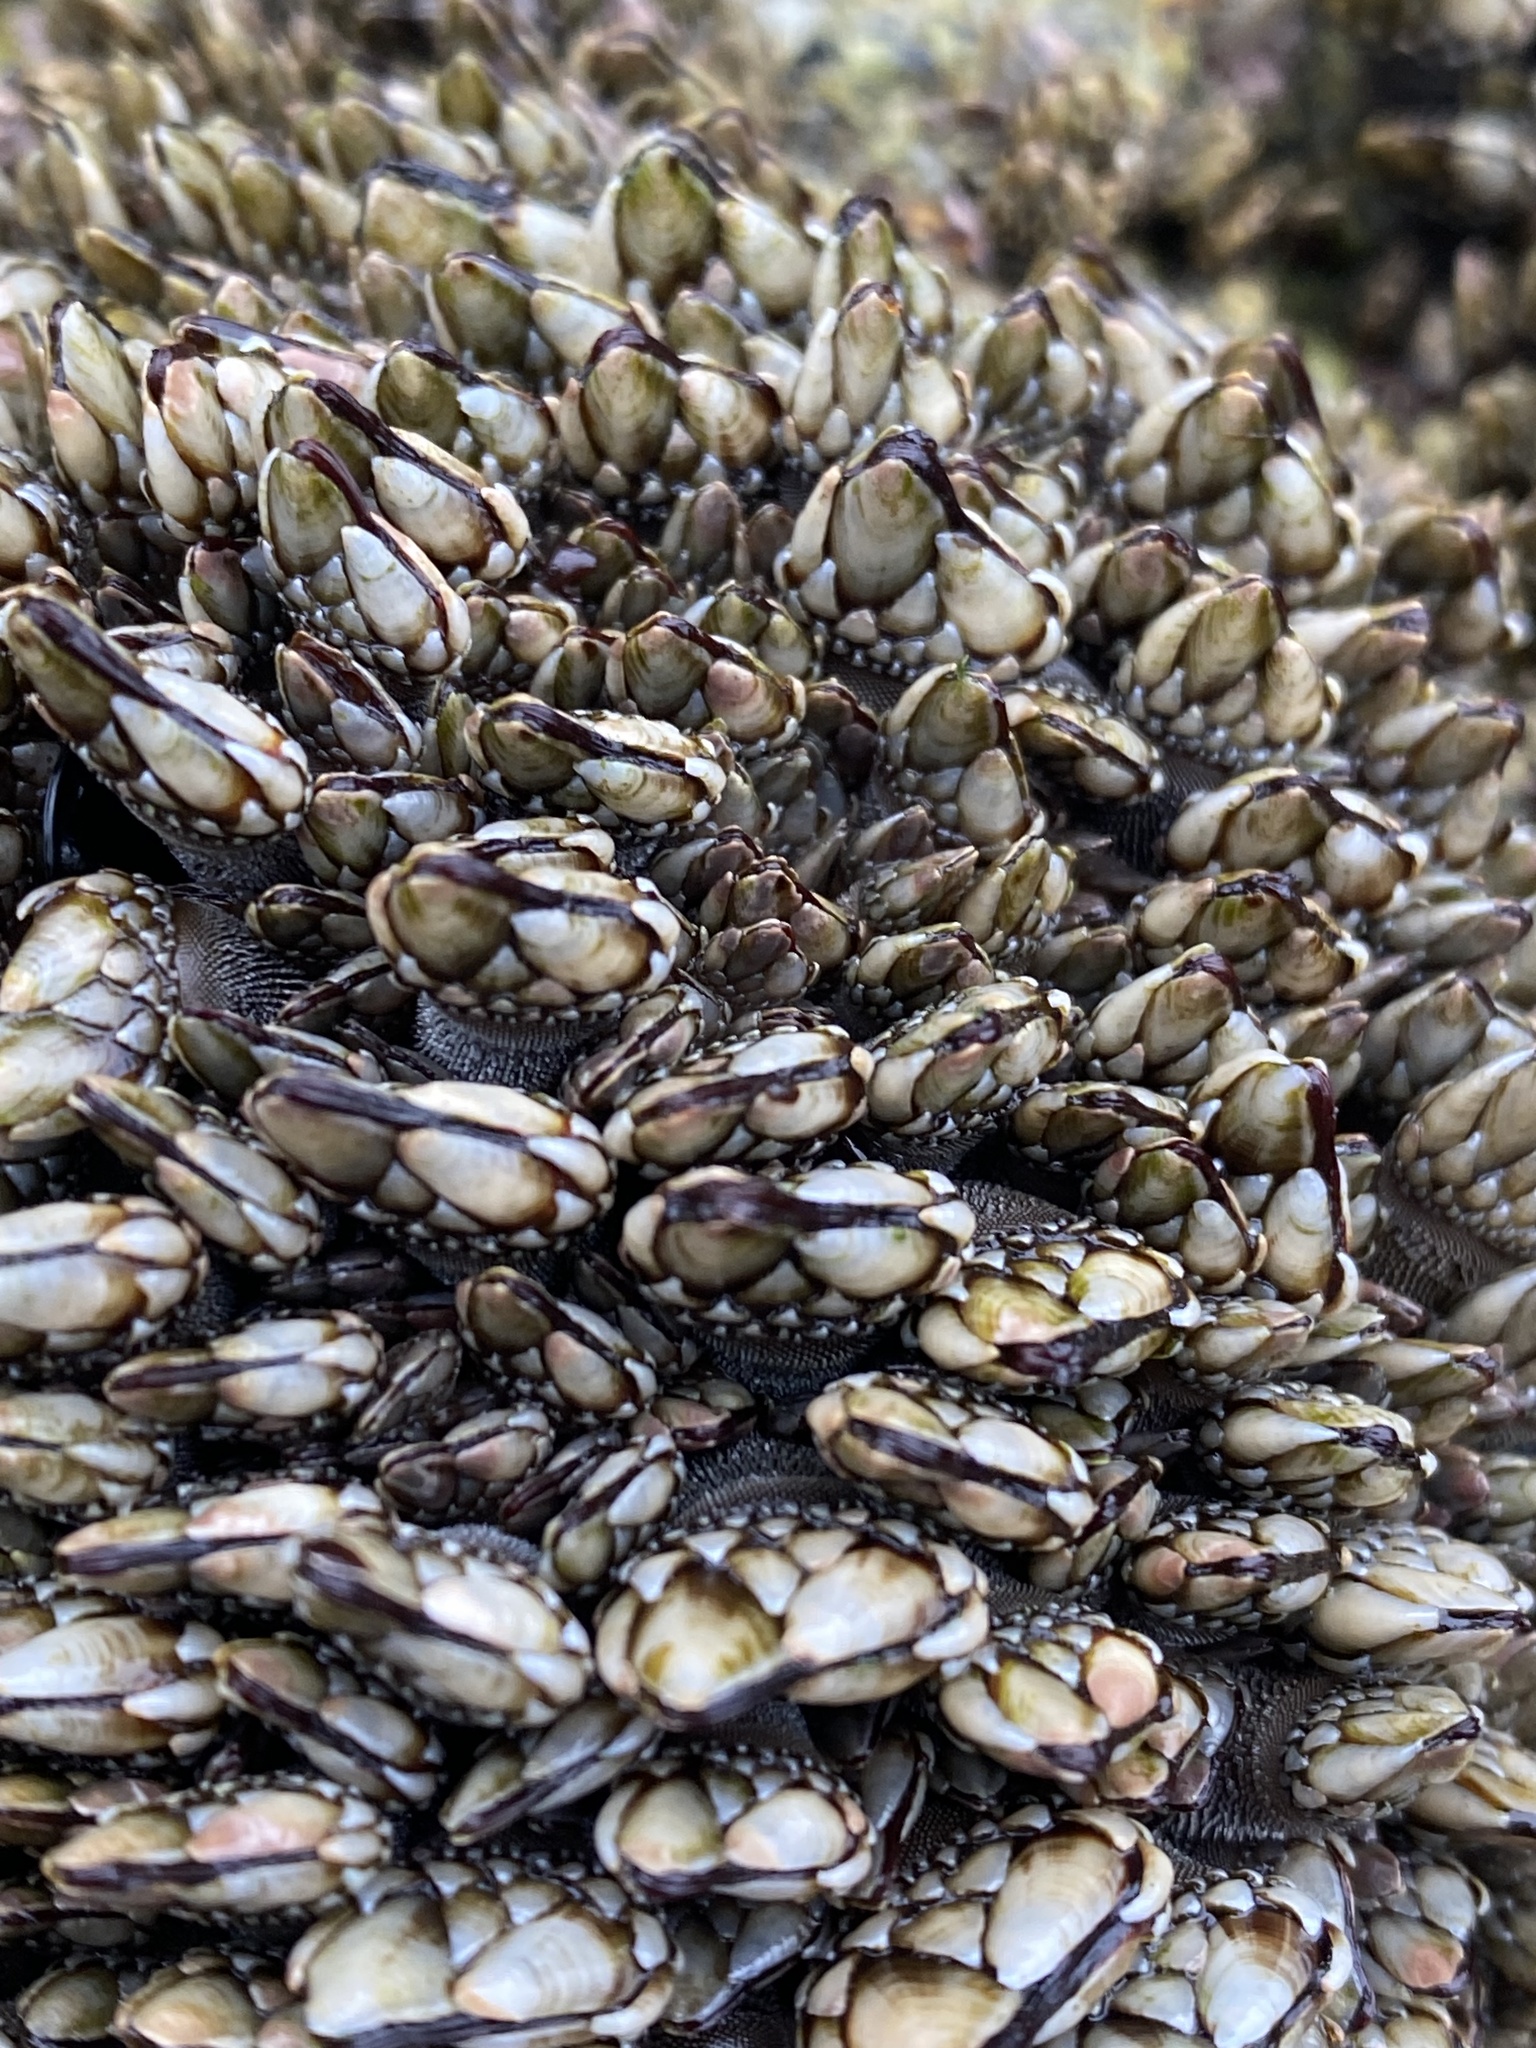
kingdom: Animalia
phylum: Arthropoda
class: Maxillopoda
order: Pedunculata
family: Pollicipedidae
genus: Pollicipes
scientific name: Pollicipes polymerus
